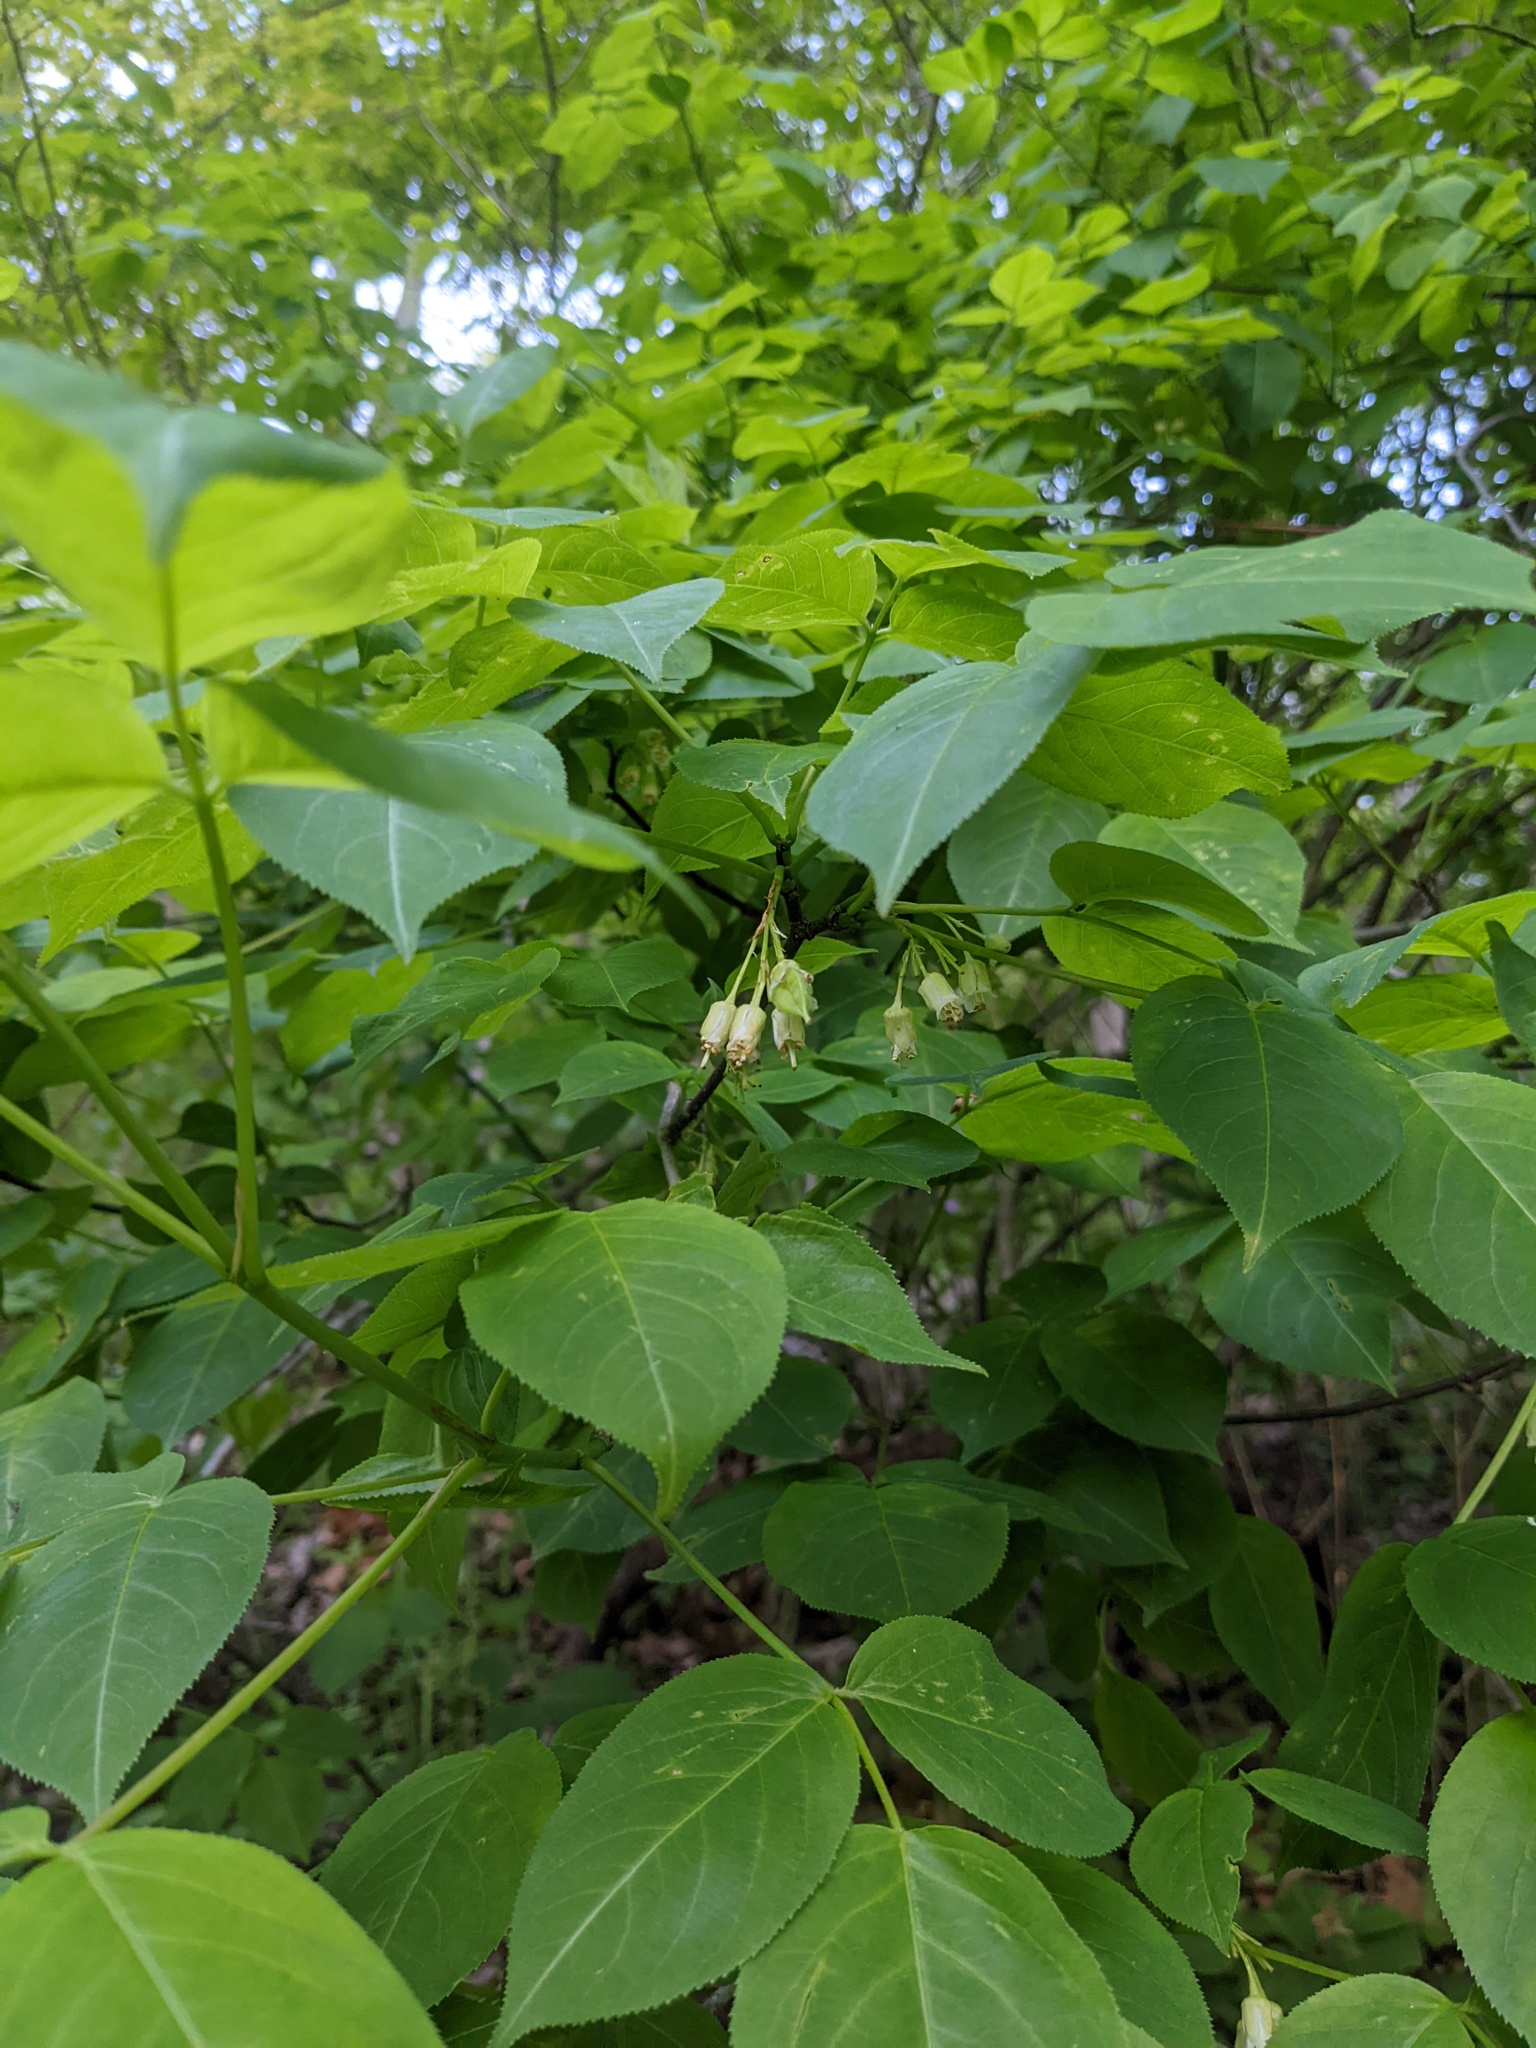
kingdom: Plantae
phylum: Tracheophyta
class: Magnoliopsida
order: Crossosomatales
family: Staphyleaceae
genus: Staphylea
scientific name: Staphylea trifolia
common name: American bladdernut
